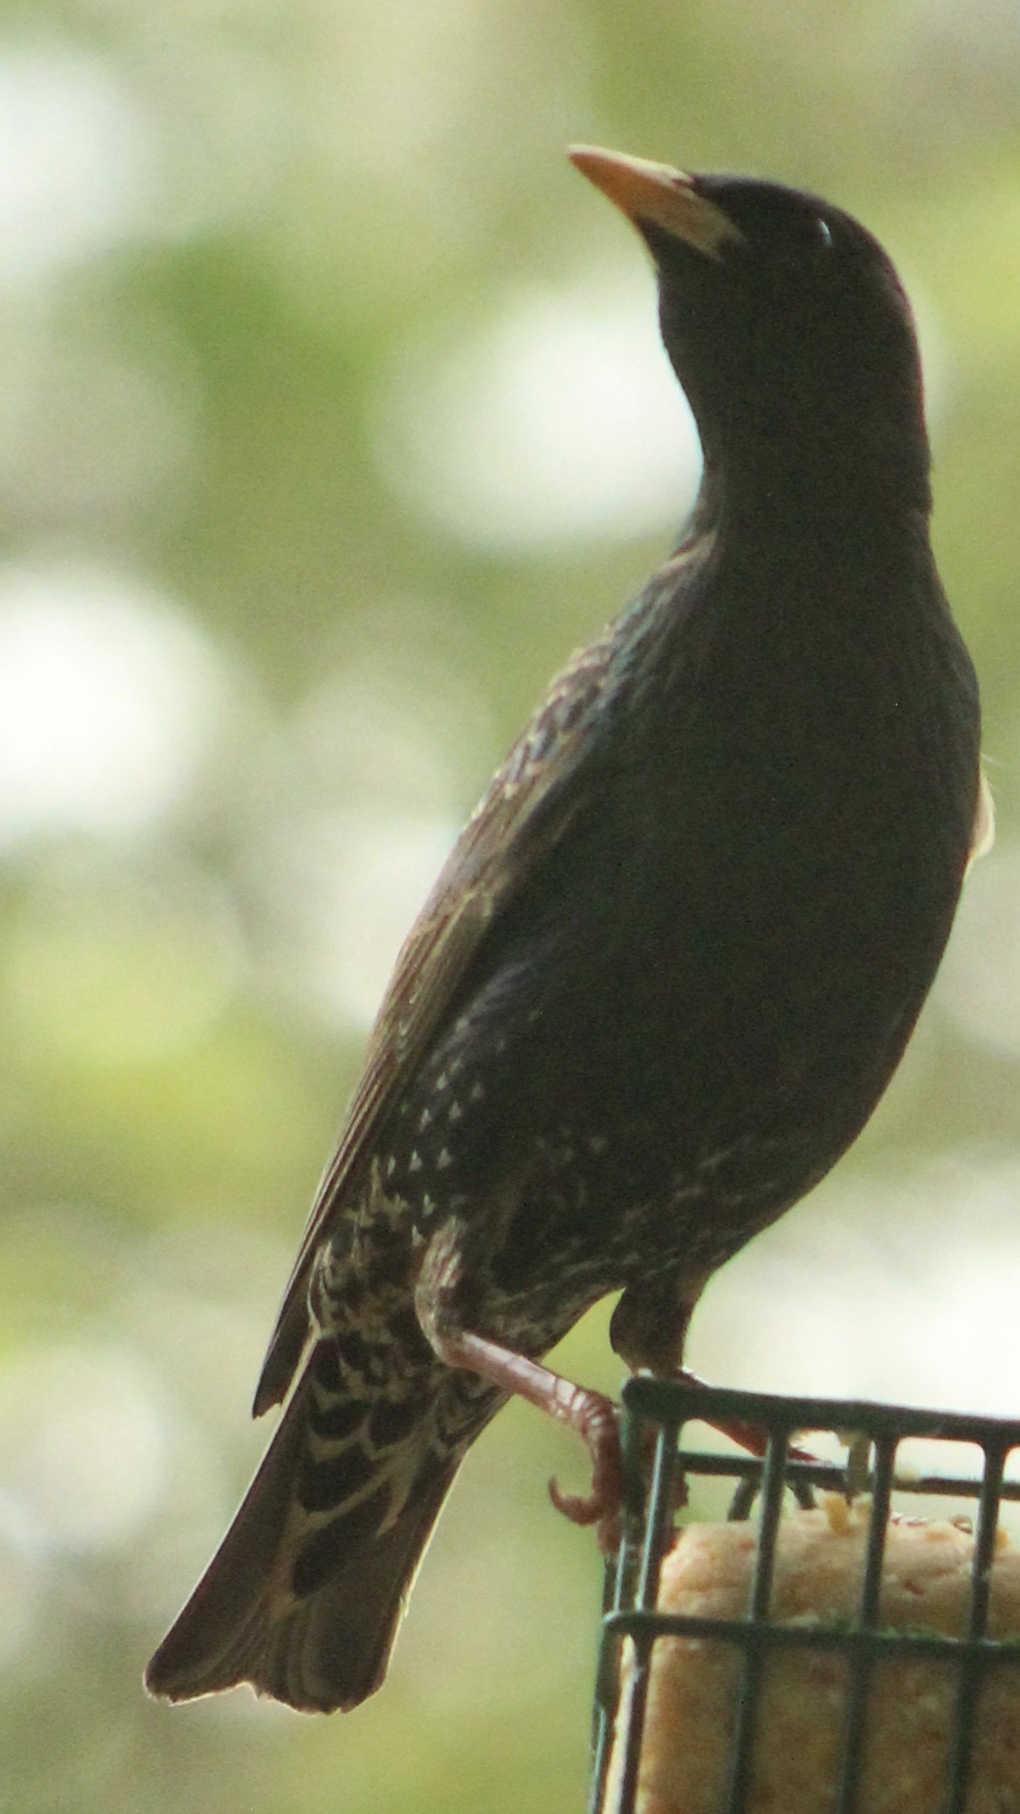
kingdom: Animalia
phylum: Chordata
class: Aves
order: Passeriformes
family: Sturnidae
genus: Sturnus
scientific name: Sturnus vulgaris
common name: Common starling
